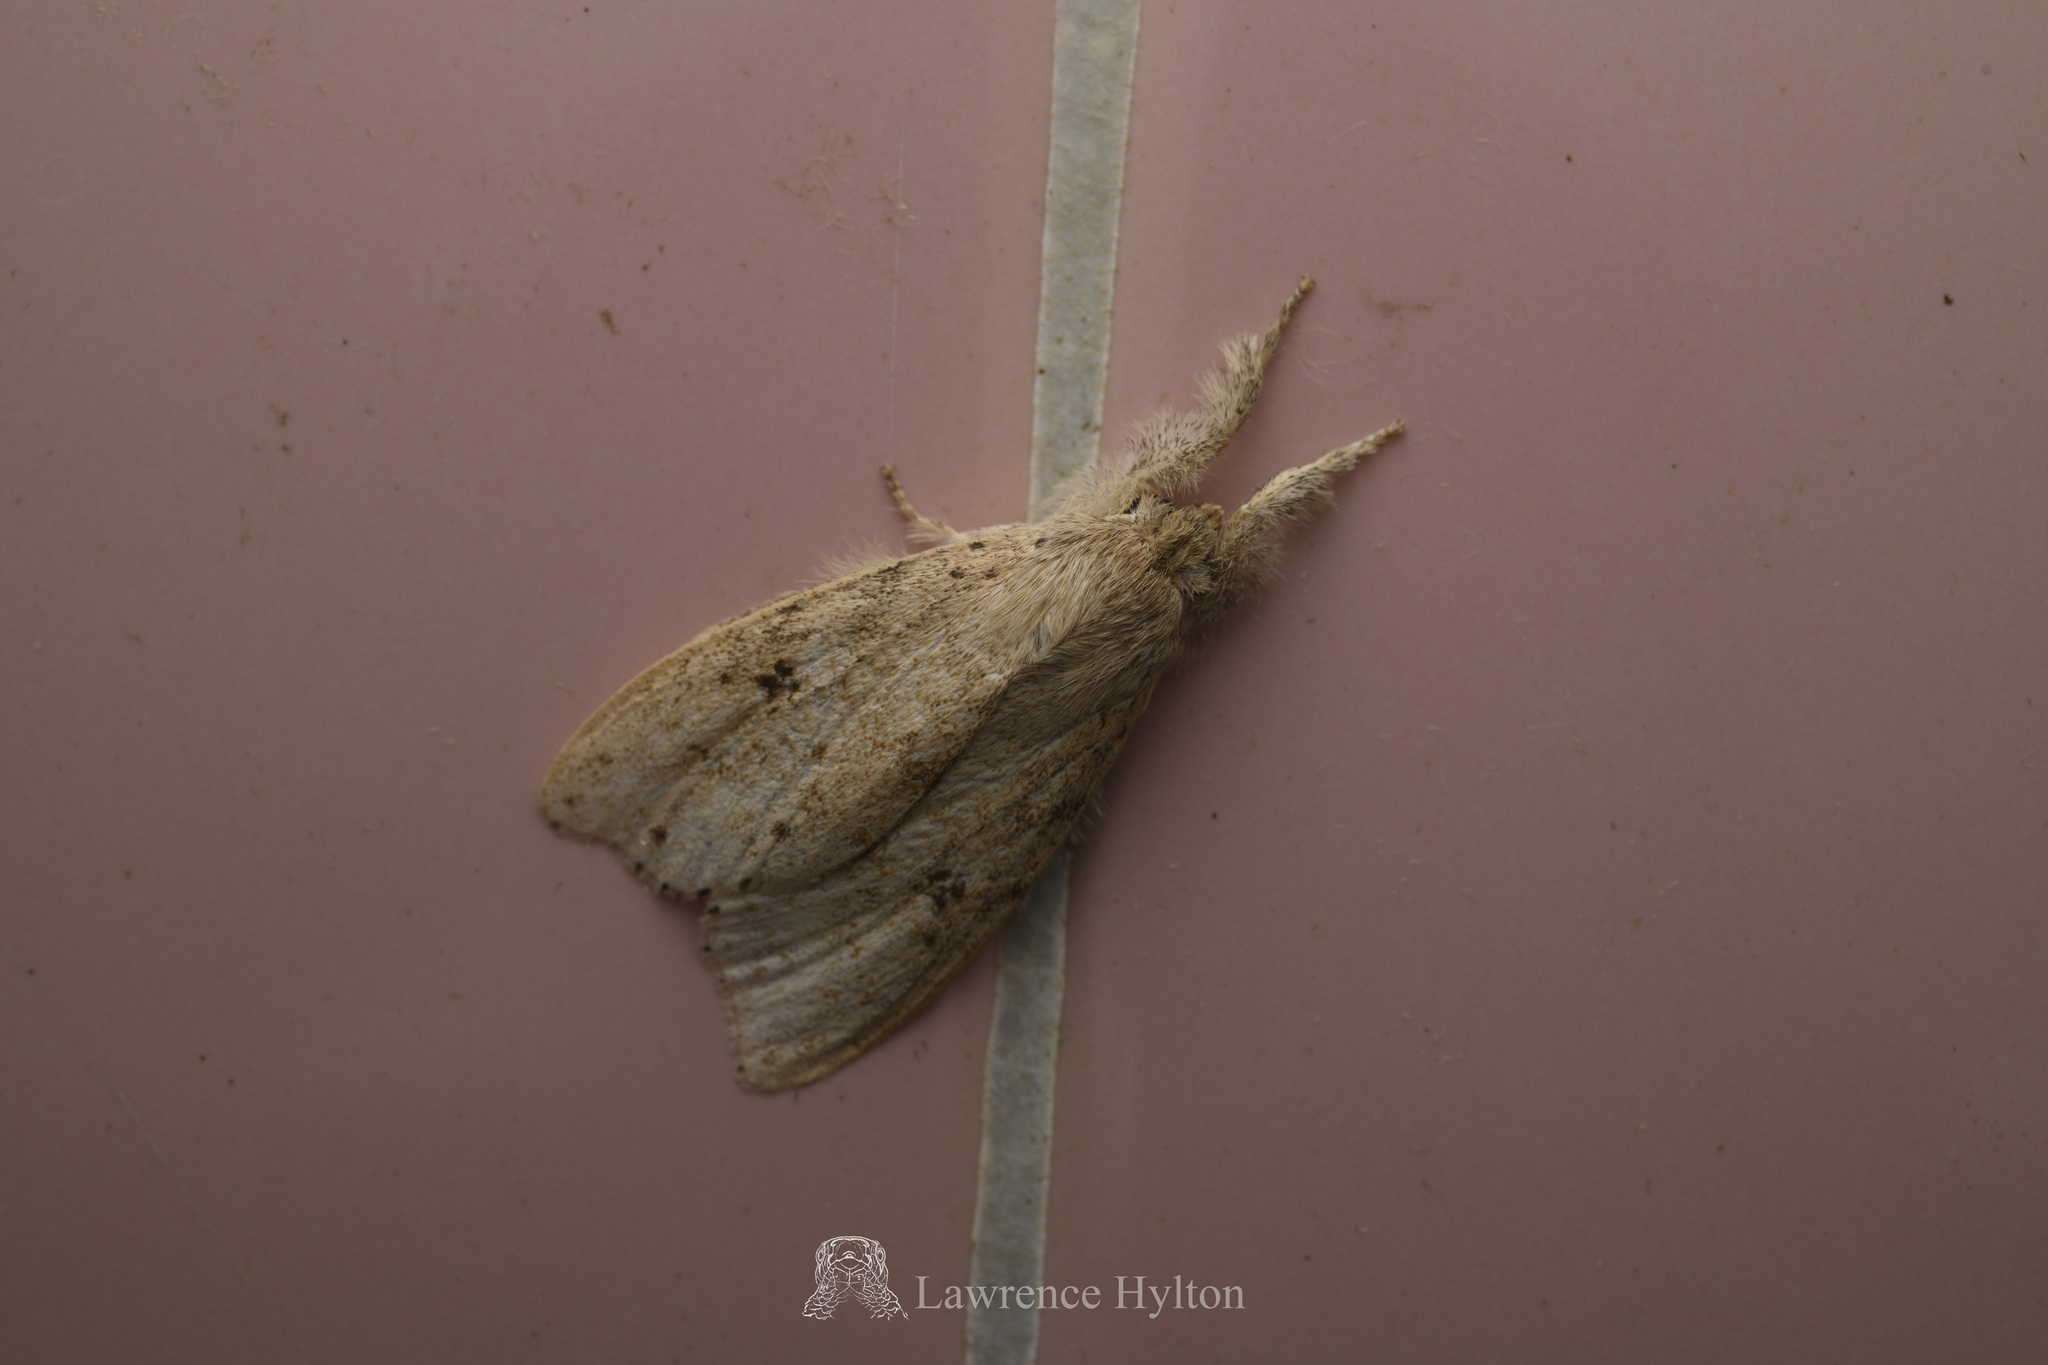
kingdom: Animalia
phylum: Arthropoda
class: Insecta
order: Lepidoptera
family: Erebidae
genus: Calliteara
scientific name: Calliteara angulata
